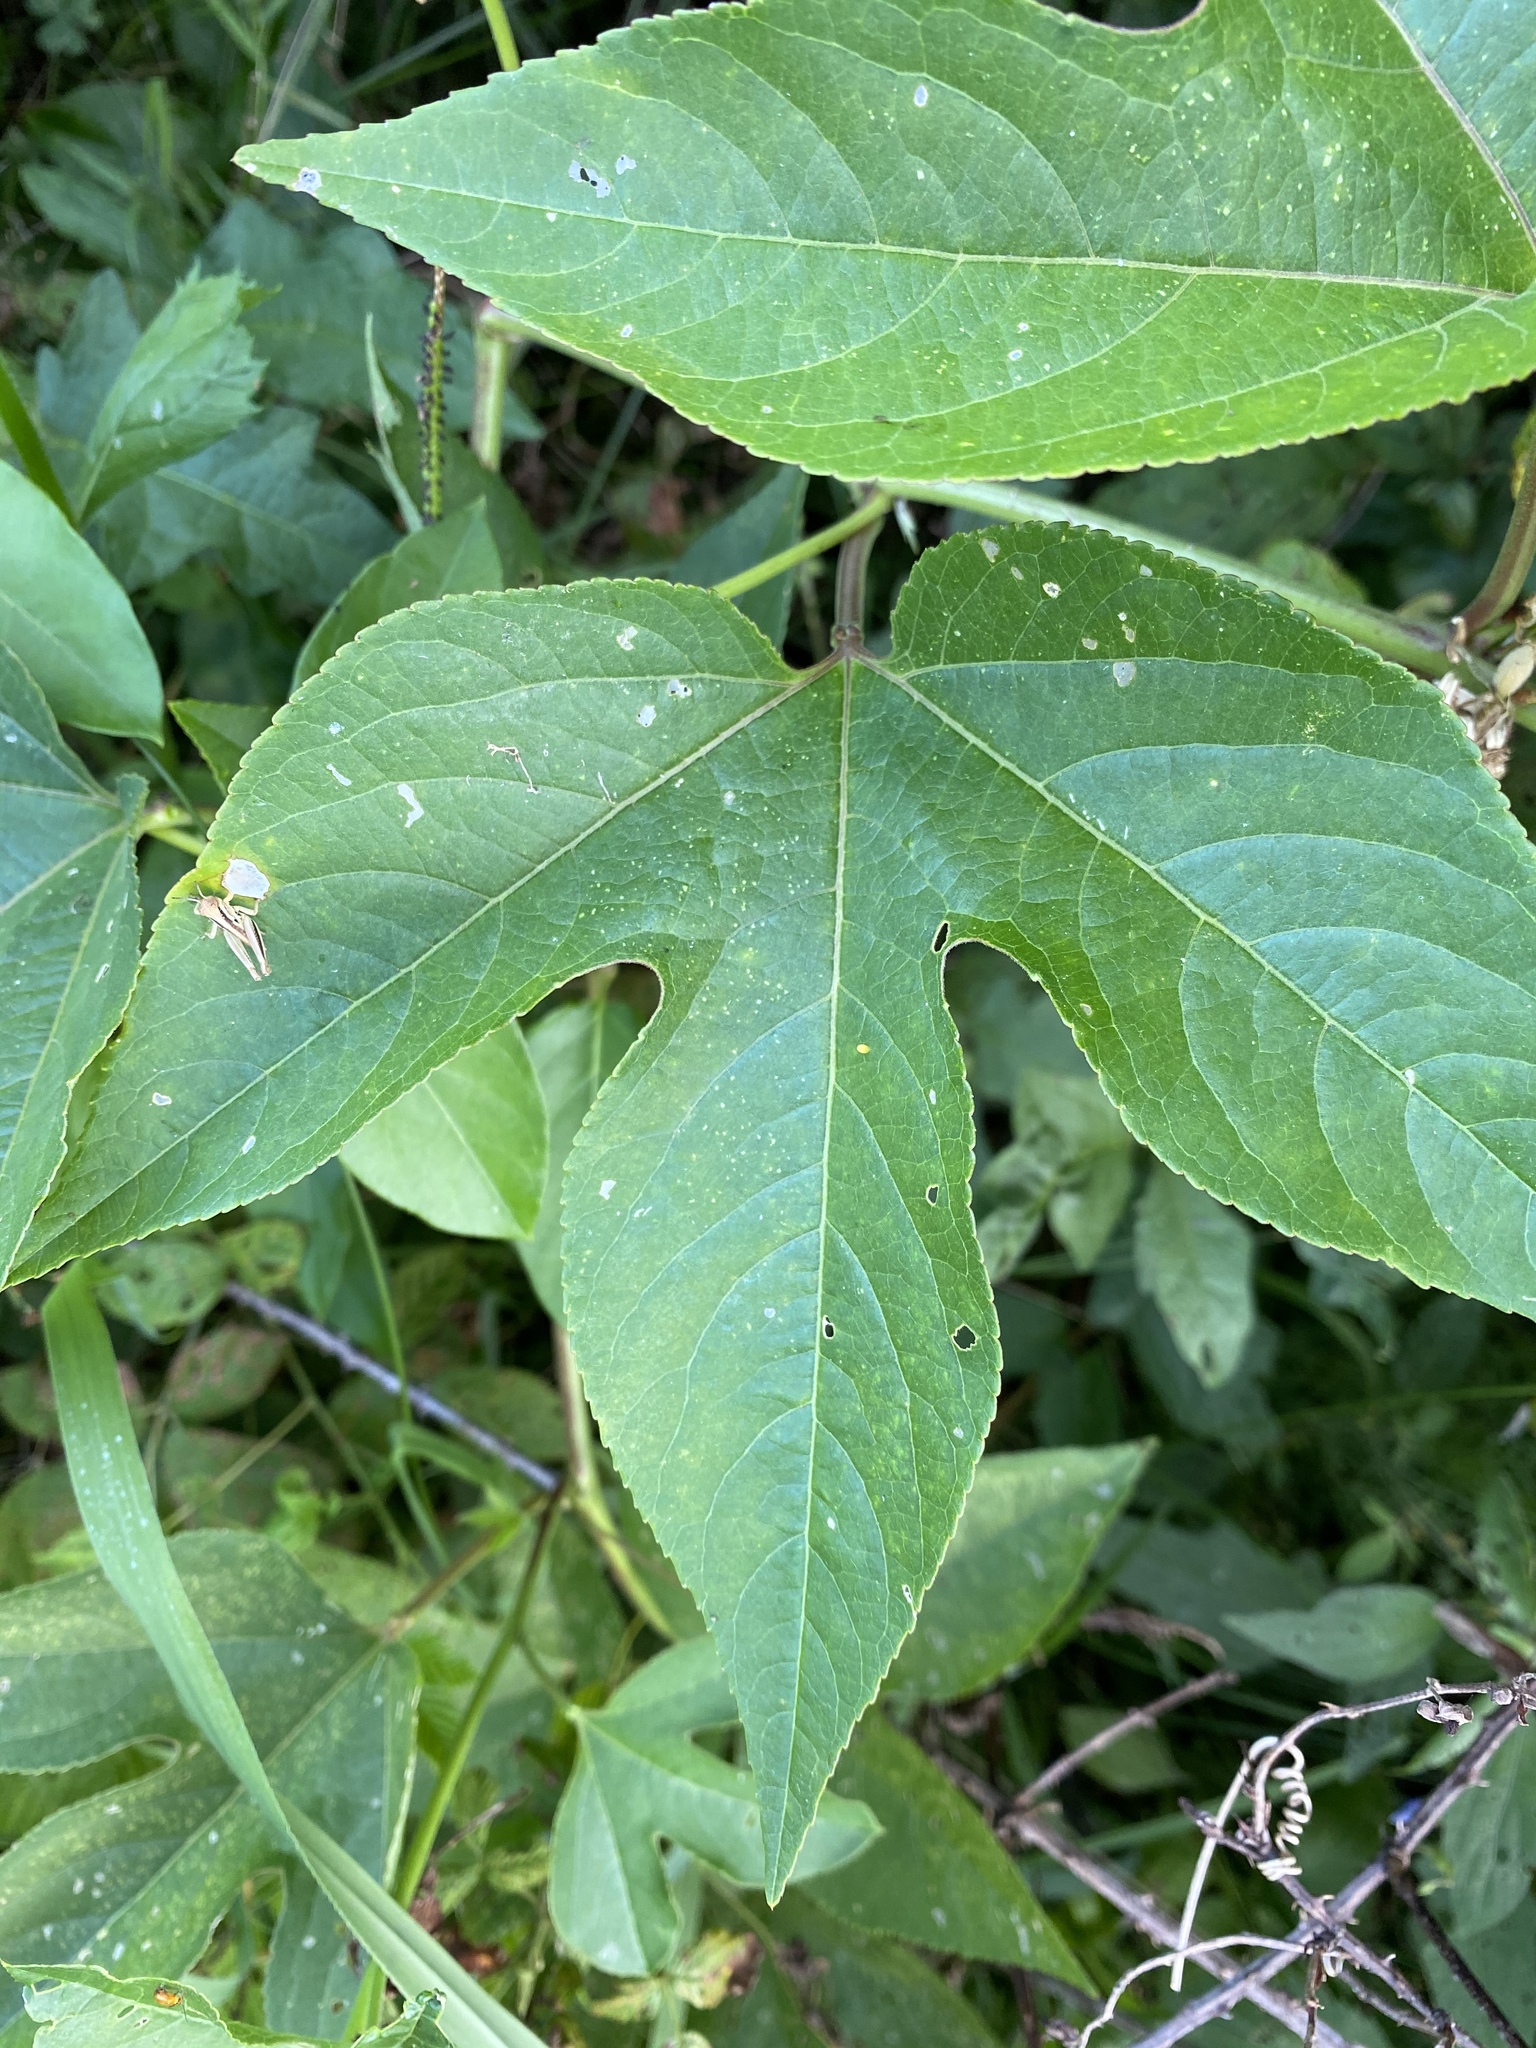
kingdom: Plantae
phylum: Tracheophyta
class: Magnoliopsida
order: Malpighiales
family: Passifloraceae
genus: Passiflora
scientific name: Passiflora incarnata
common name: Apricot-vine
